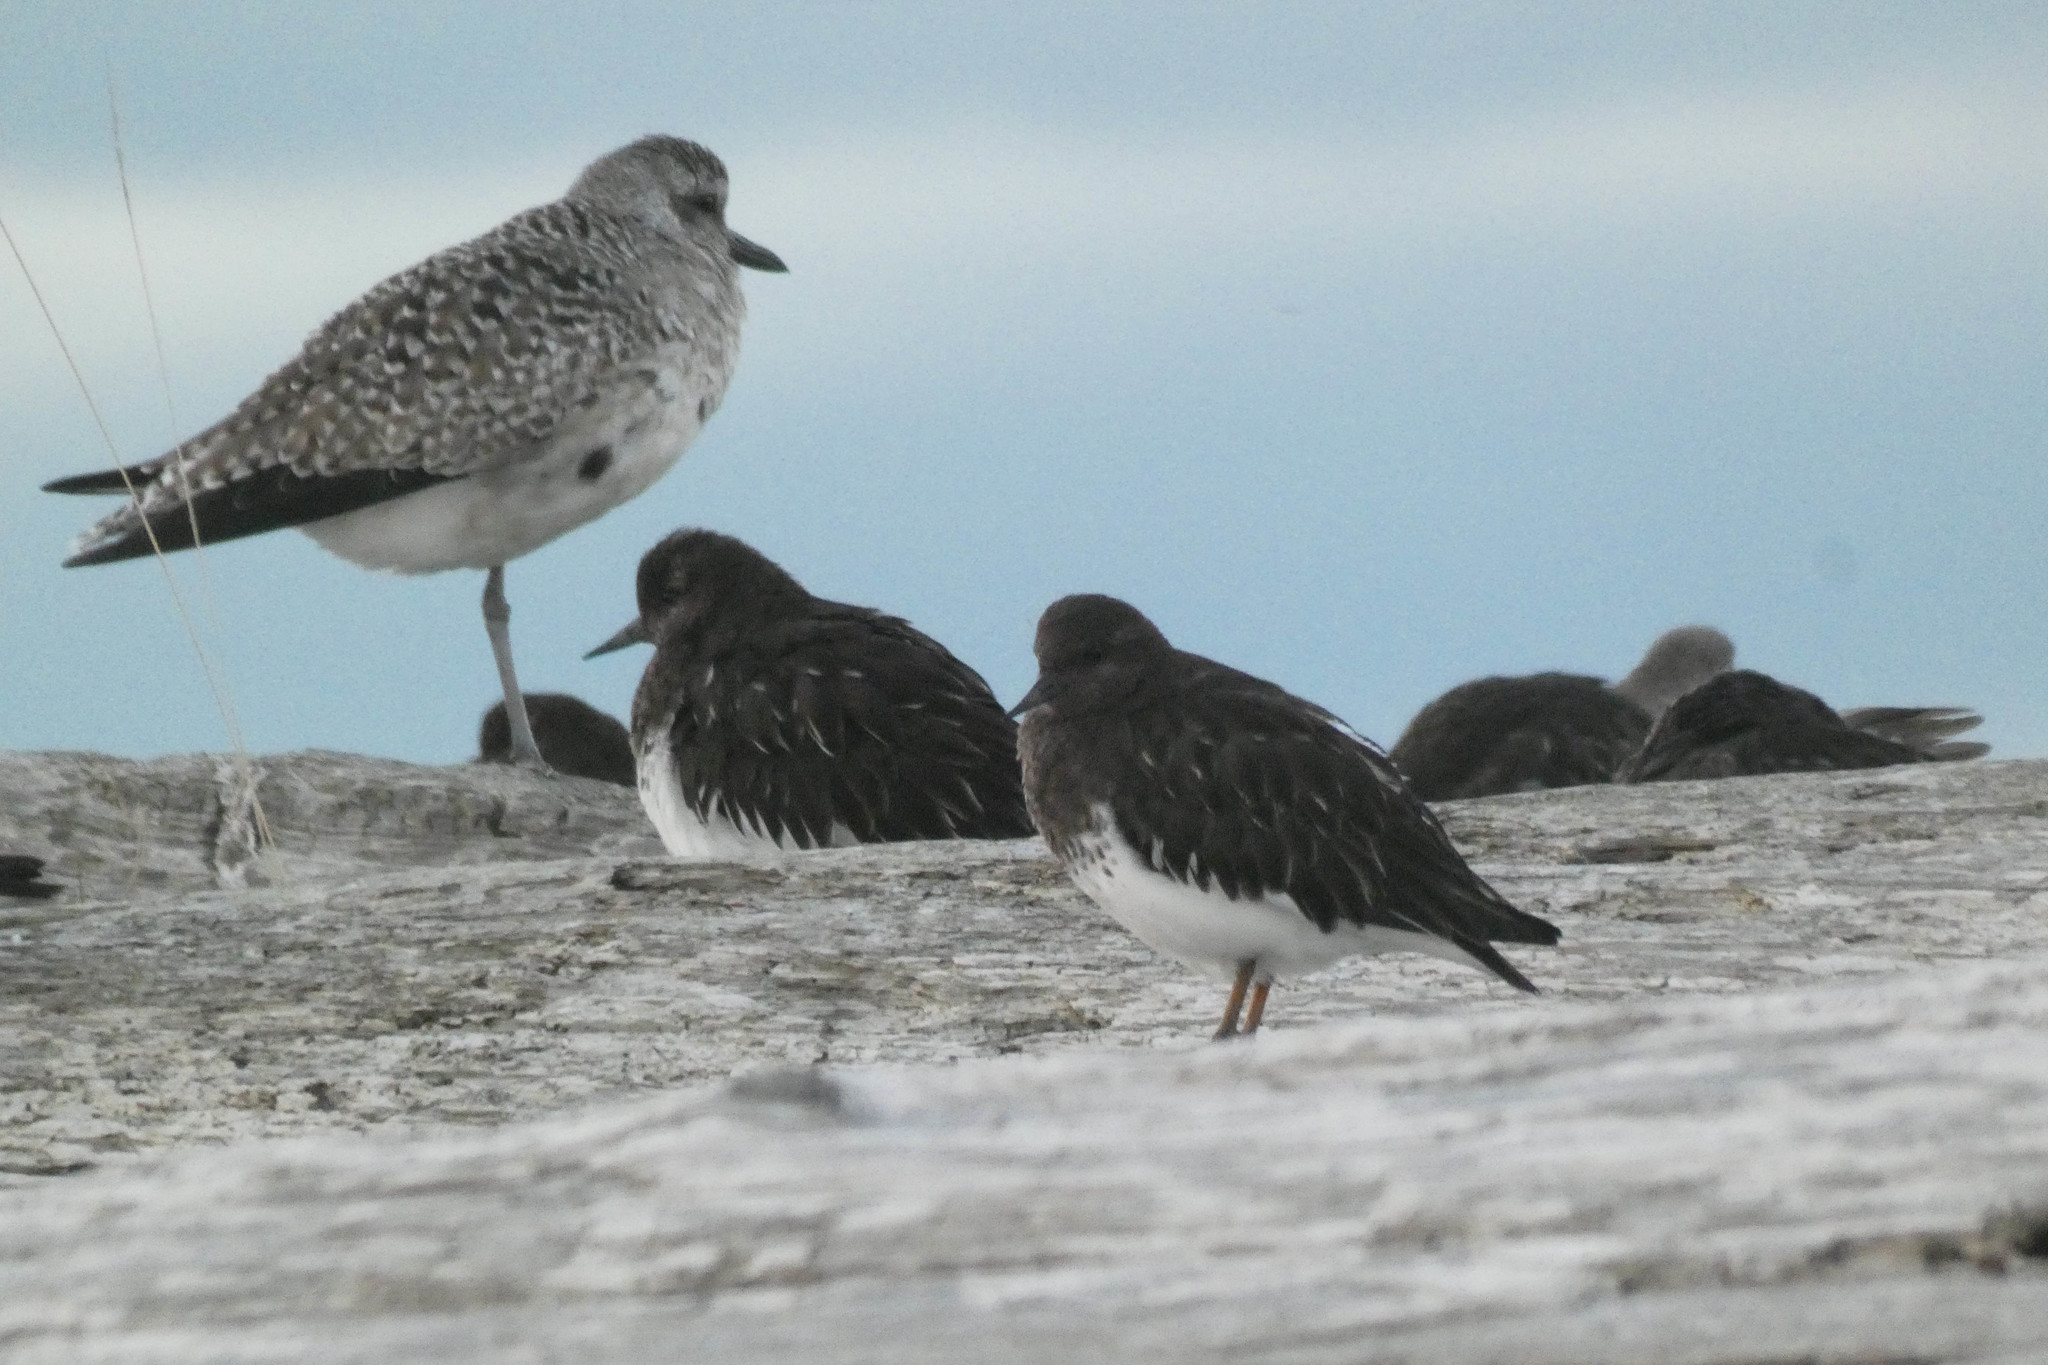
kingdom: Animalia
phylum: Chordata
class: Aves
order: Charadriiformes
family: Scolopacidae
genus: Arenaria
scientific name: Arenaria melanocephala
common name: Black turnstone
